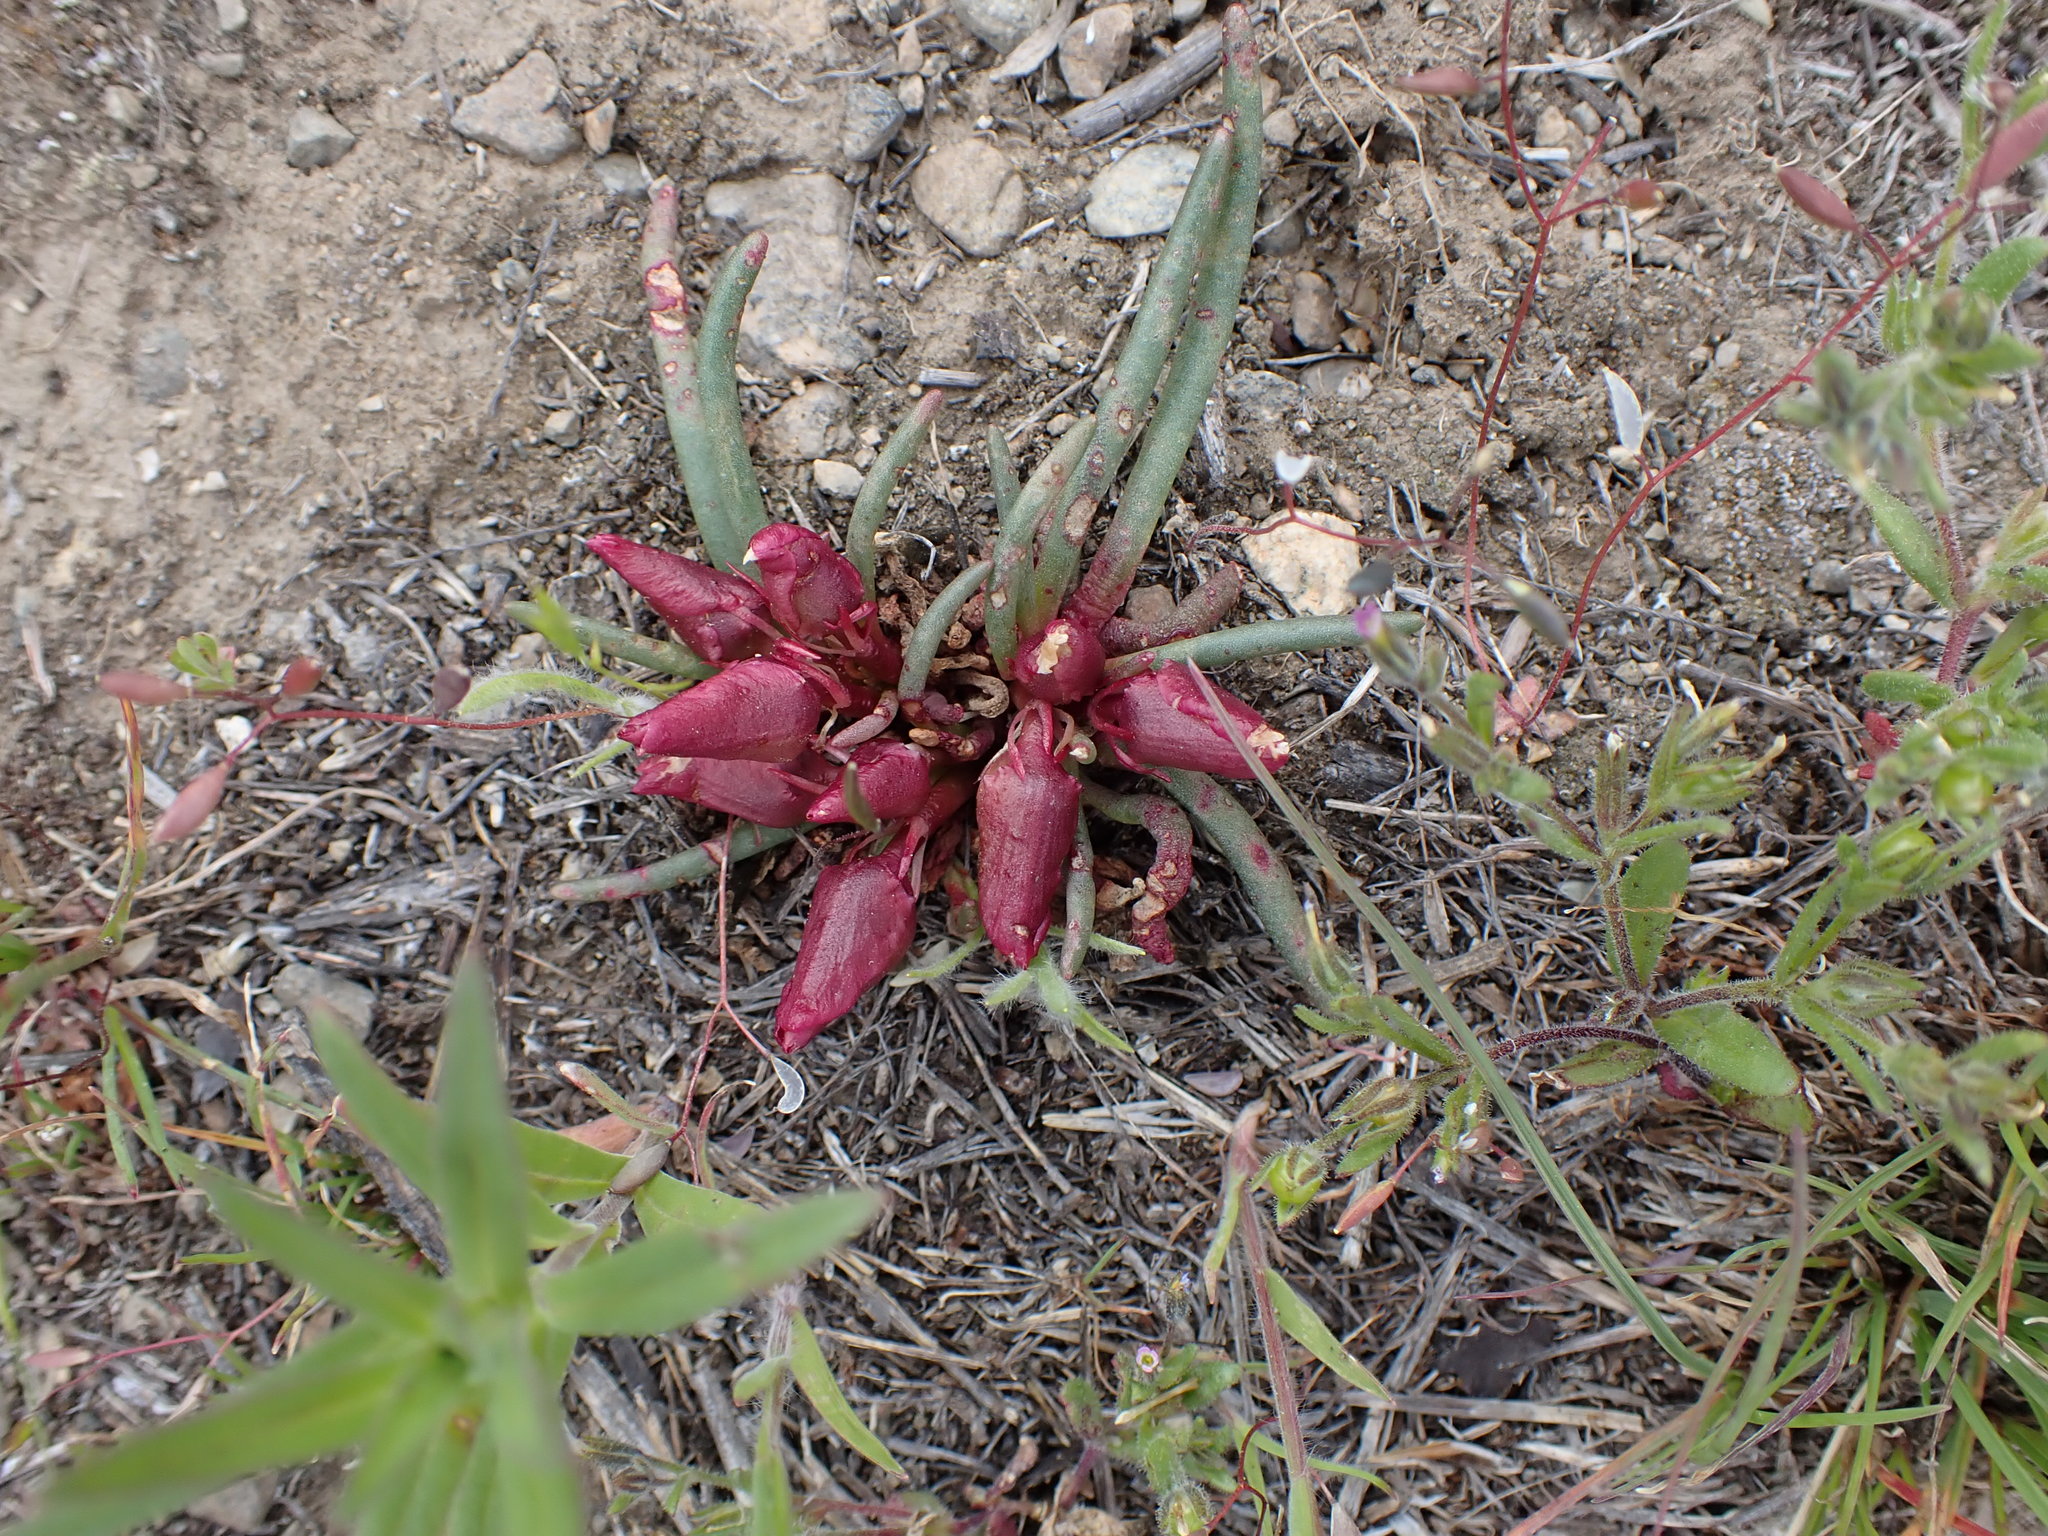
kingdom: Plantae
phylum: Tracheophyta
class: Magnoliopsida
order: Caryophyllales
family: Montiaceae
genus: Lewisia
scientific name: Lewisia rediviva
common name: Bitter-root
